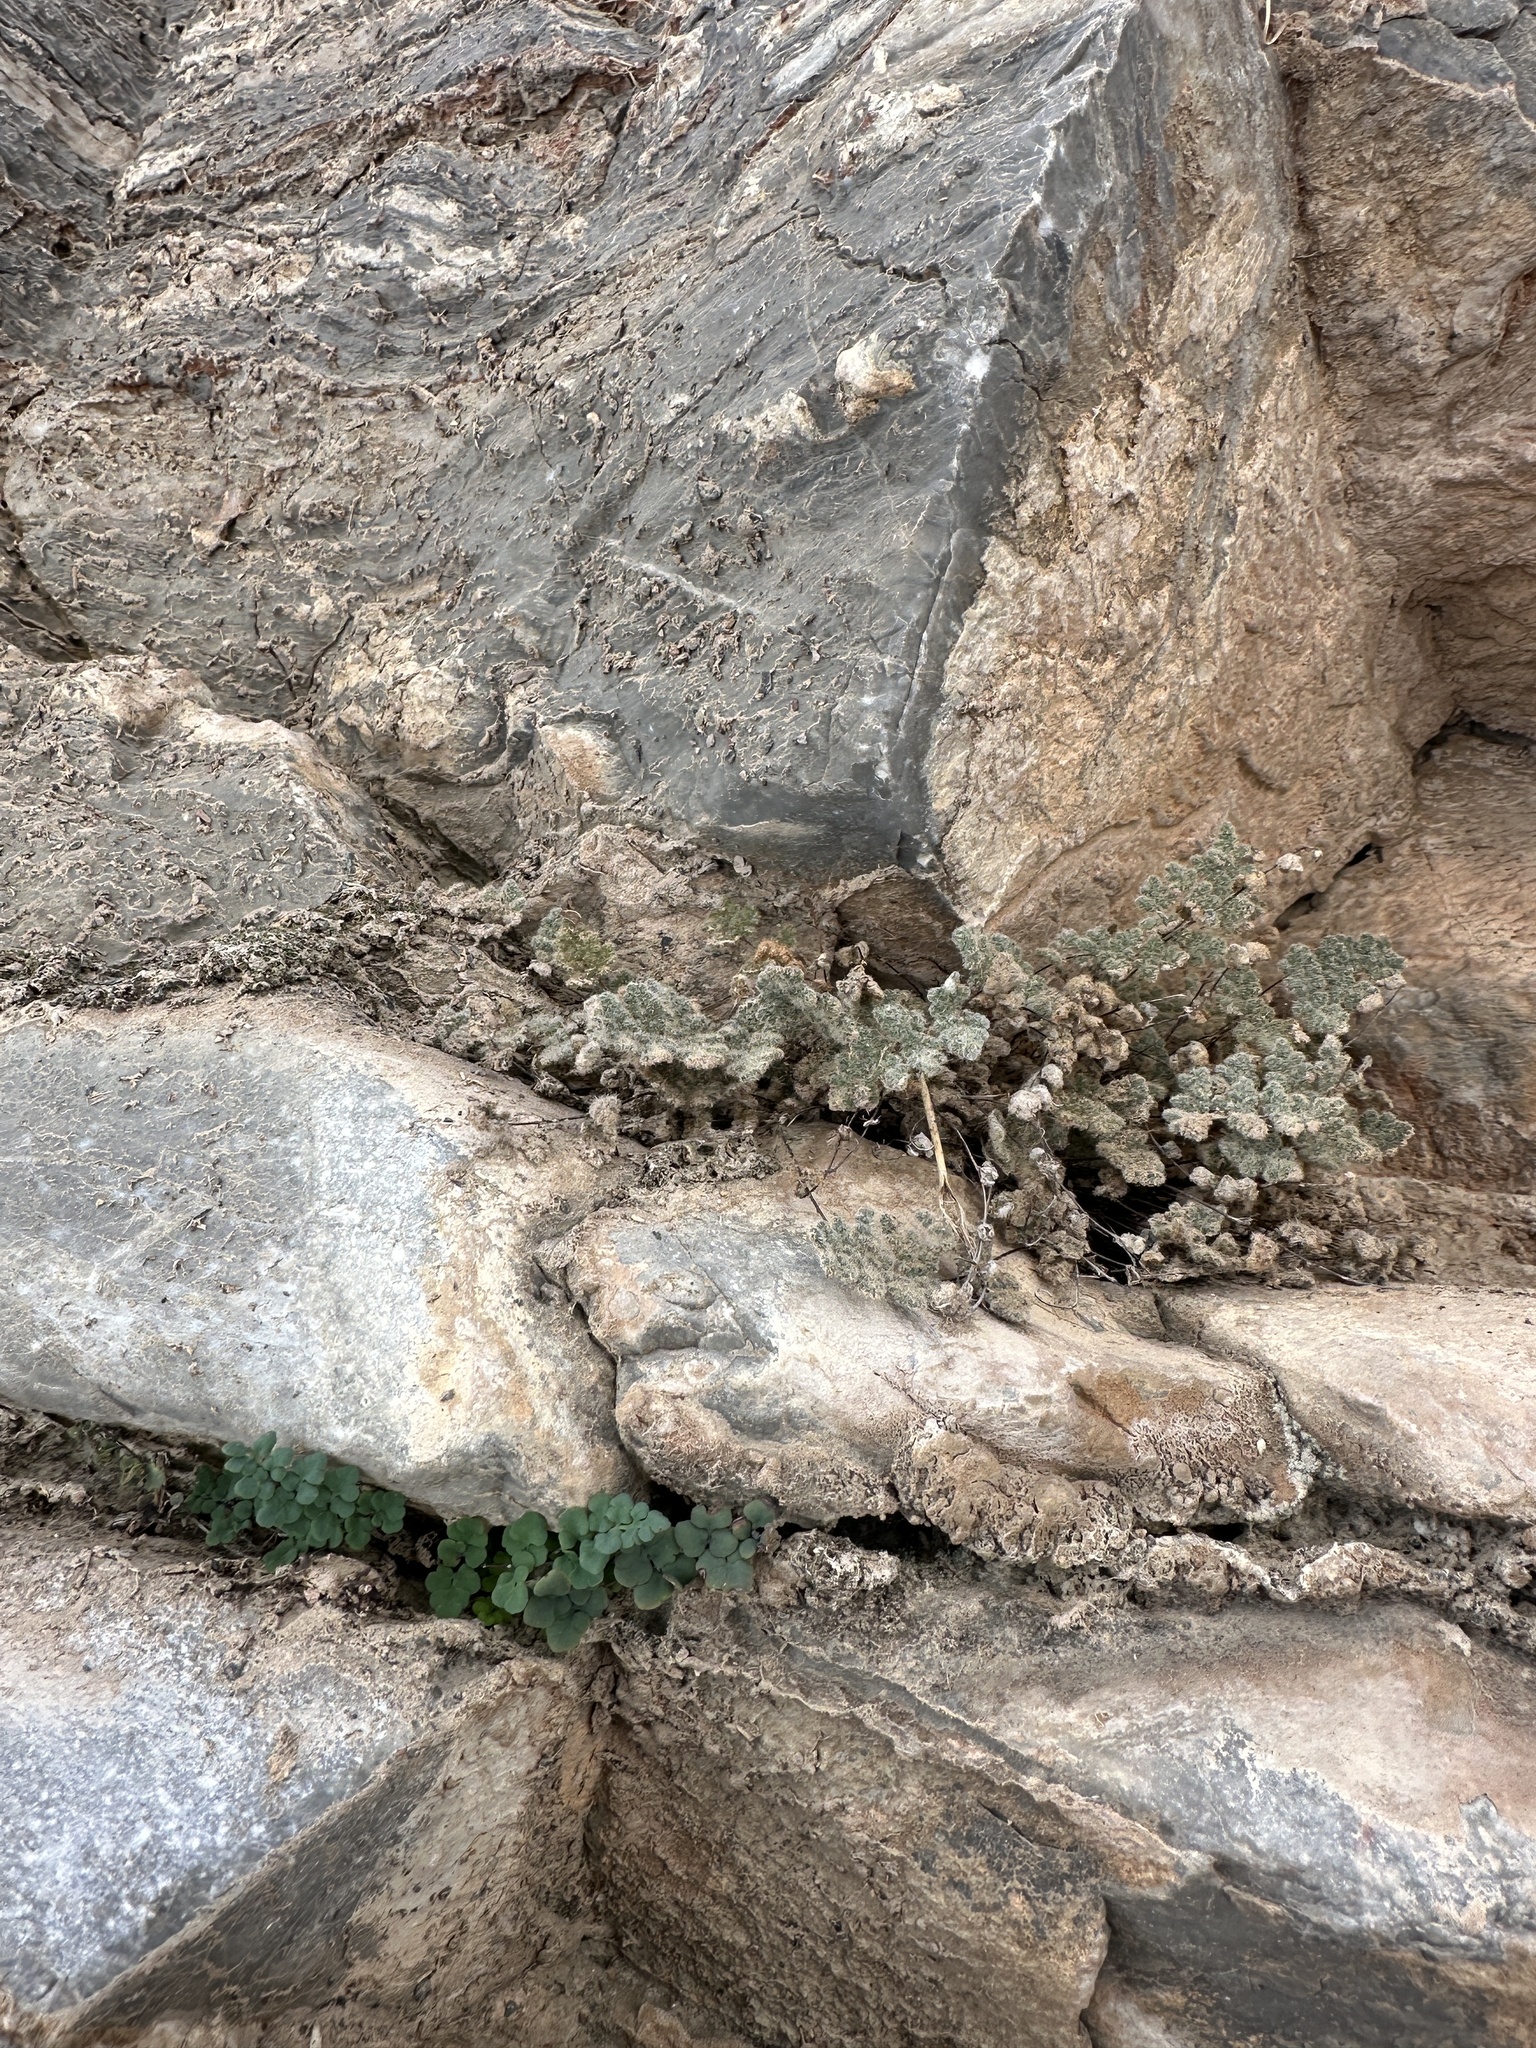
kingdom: Plantae
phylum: Tracheophyta
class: Polypodiopsida
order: Polypodiales
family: Pteridaceae
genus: Myriopteris
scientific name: Myriopteris parryi
